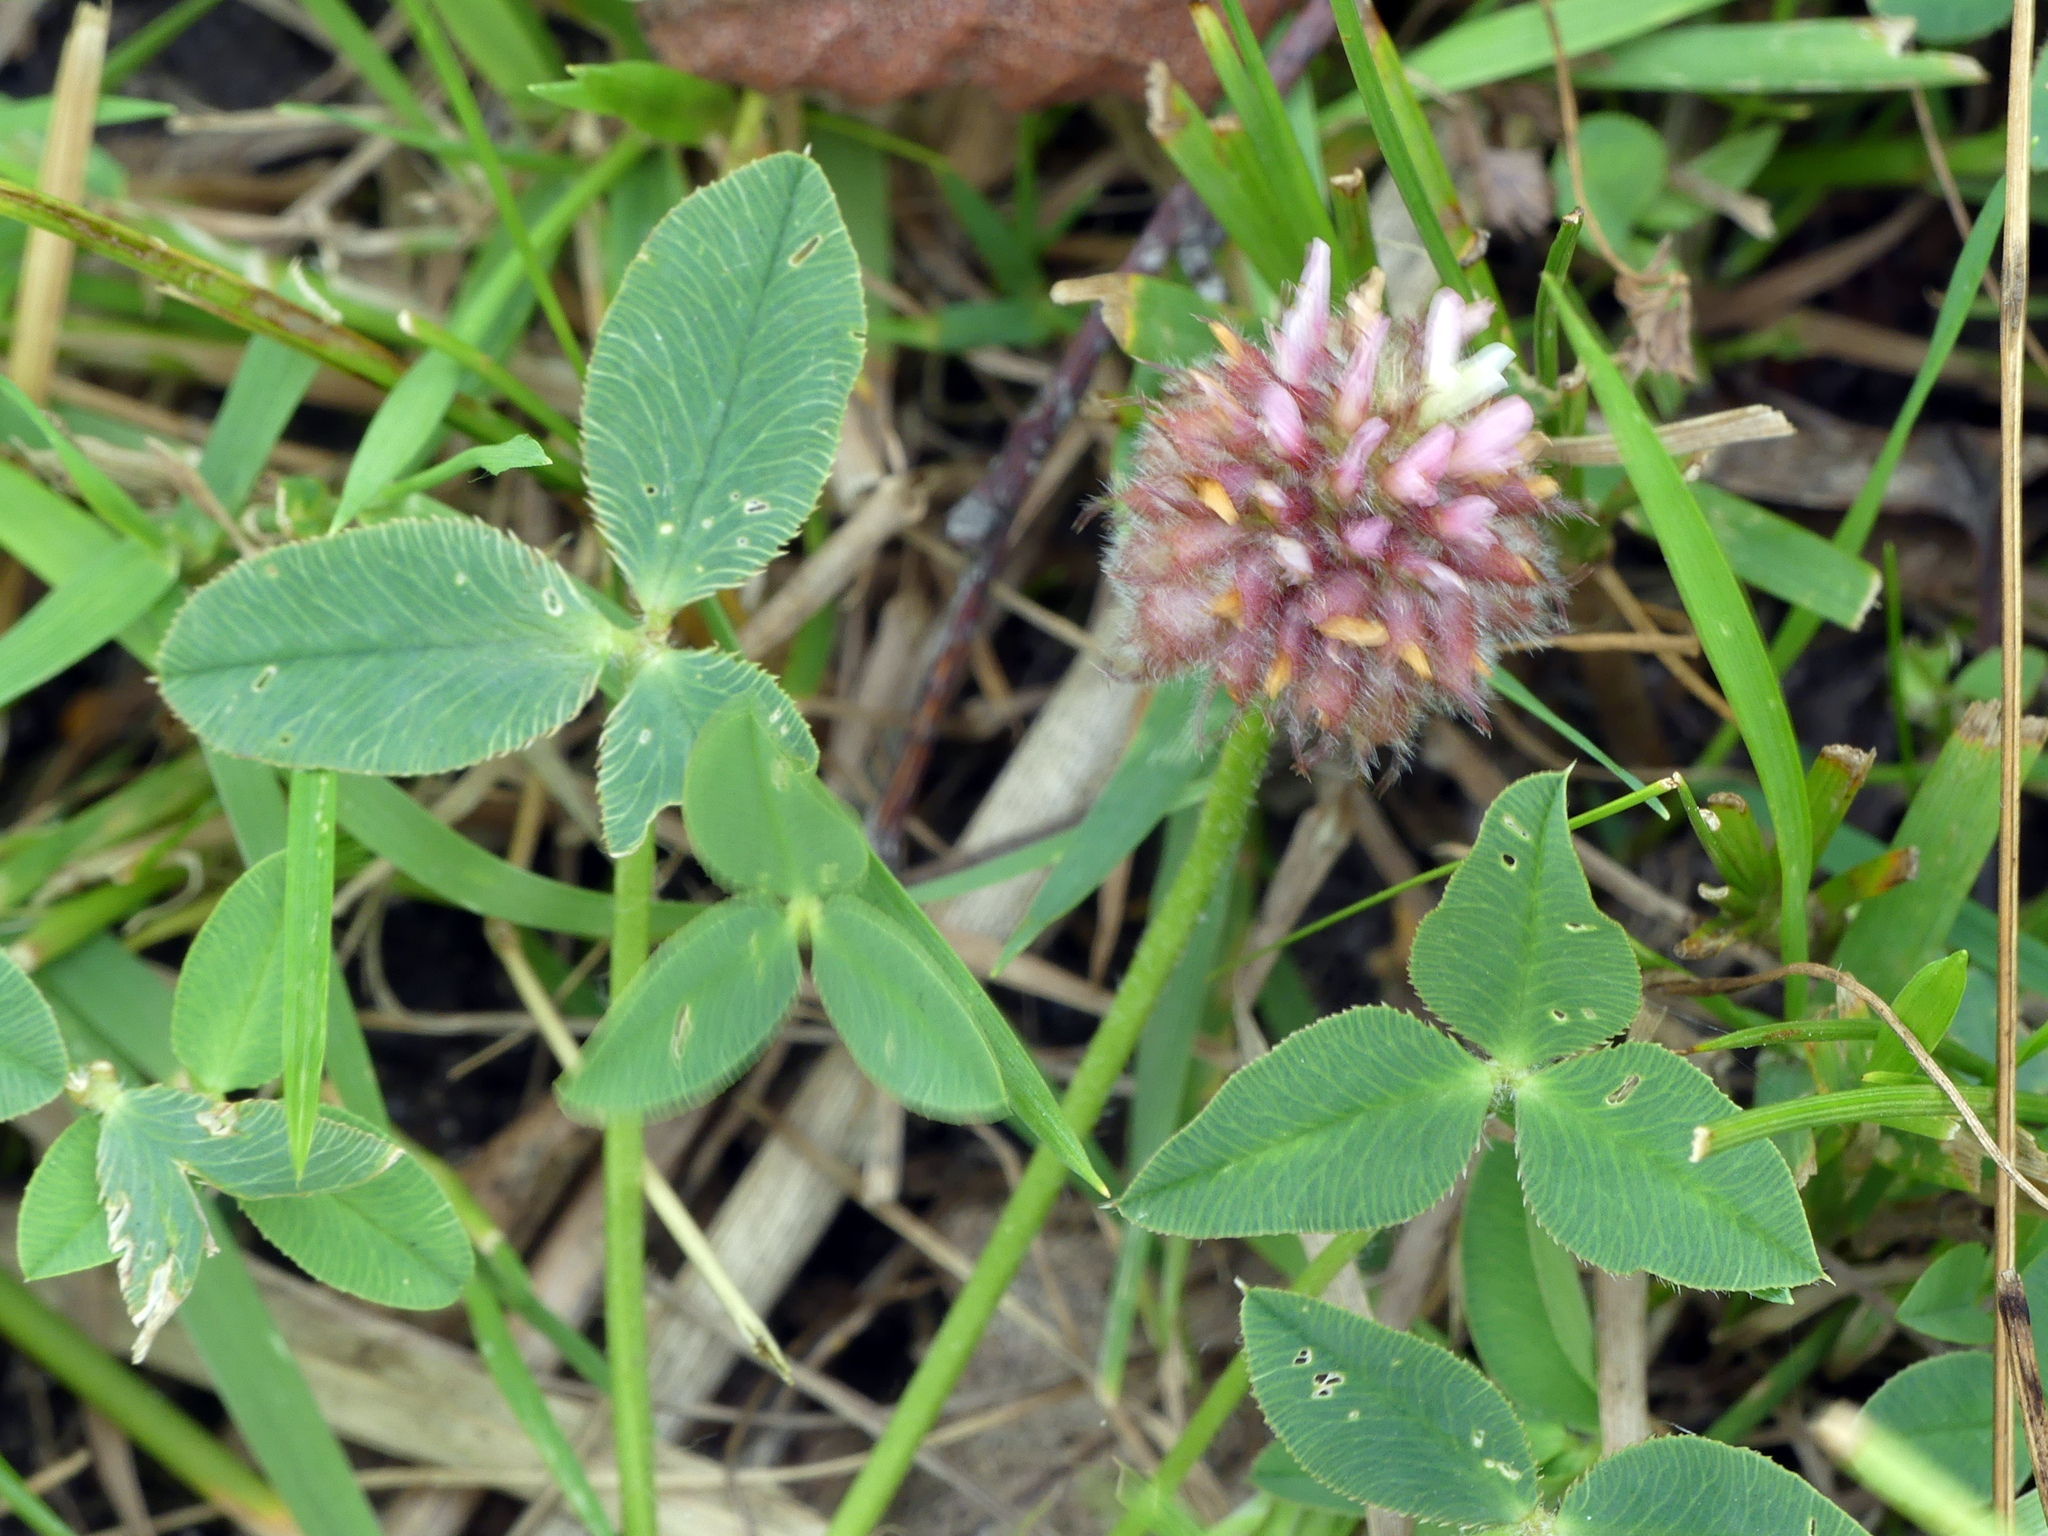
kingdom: Plantae
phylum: Tracheophyta
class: Magnoliopsida
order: Fabales
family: Fabaceae
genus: Trifolium
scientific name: Trifolium fragiferum
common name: Strawberry clover
